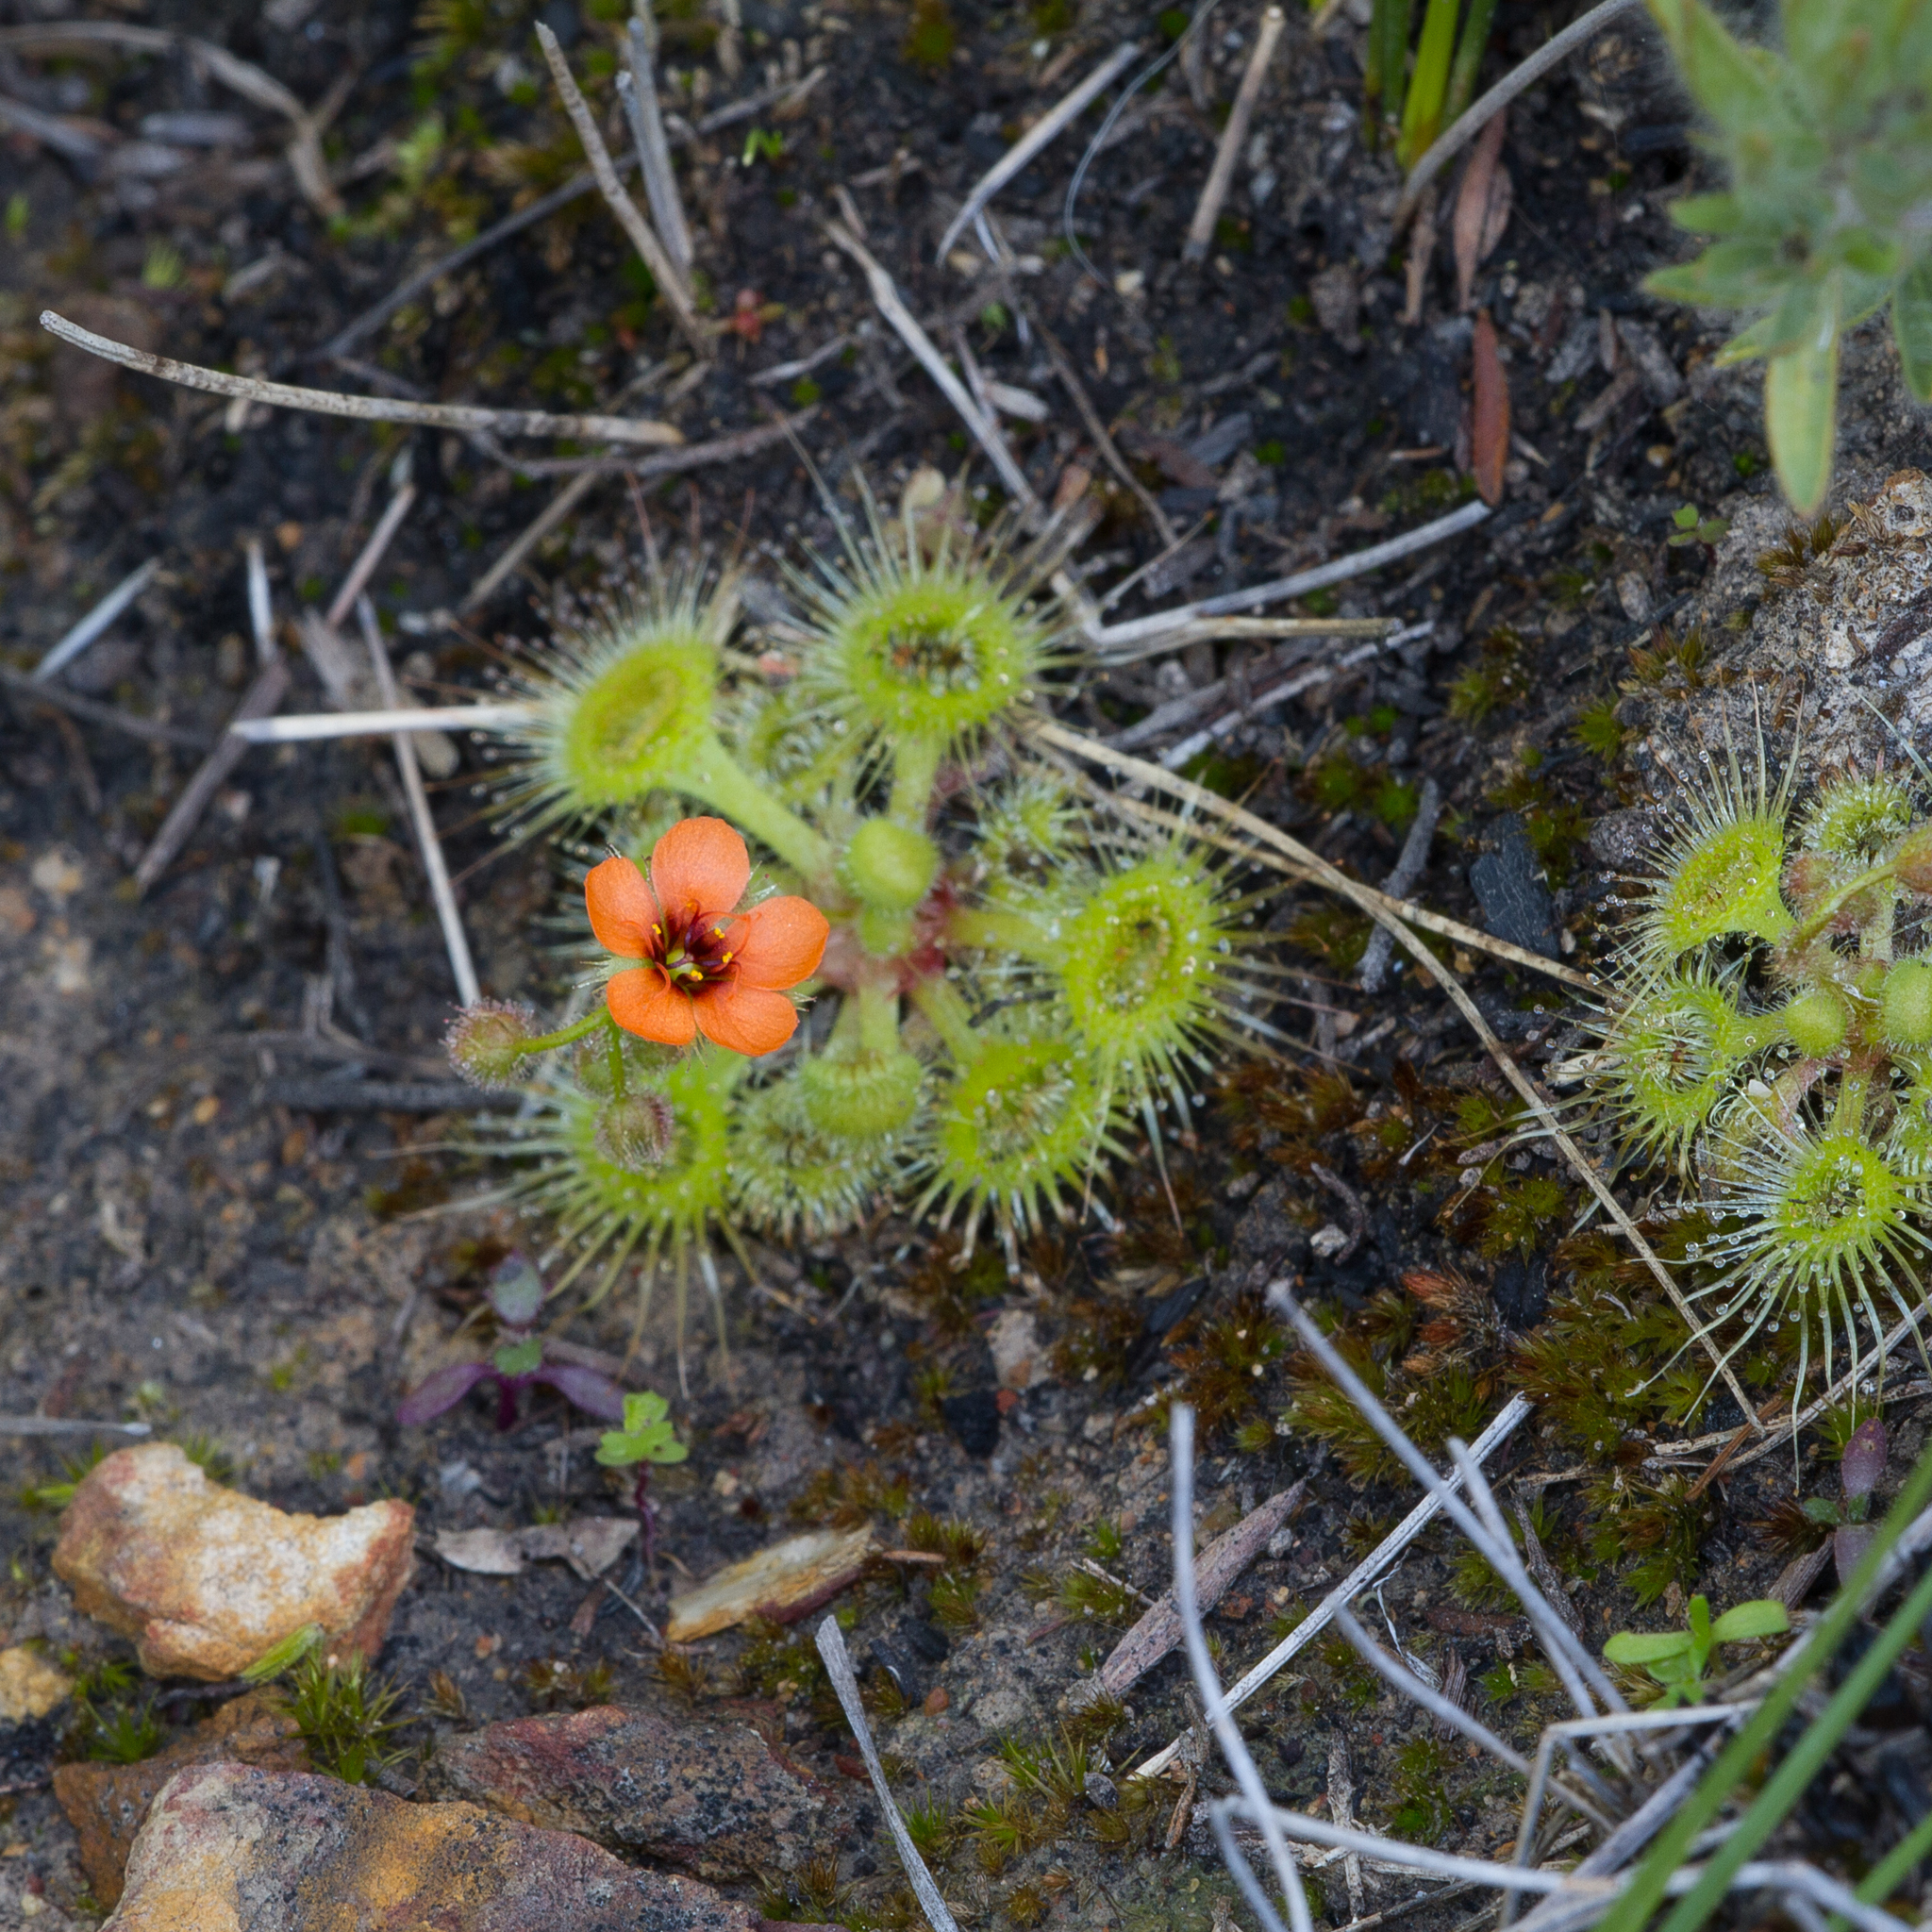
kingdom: Plantae
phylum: Tracheophyta
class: Magnoliopsida
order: Caryophyllales
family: Droseraceae
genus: Drosera
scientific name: Drosera glanduligera
